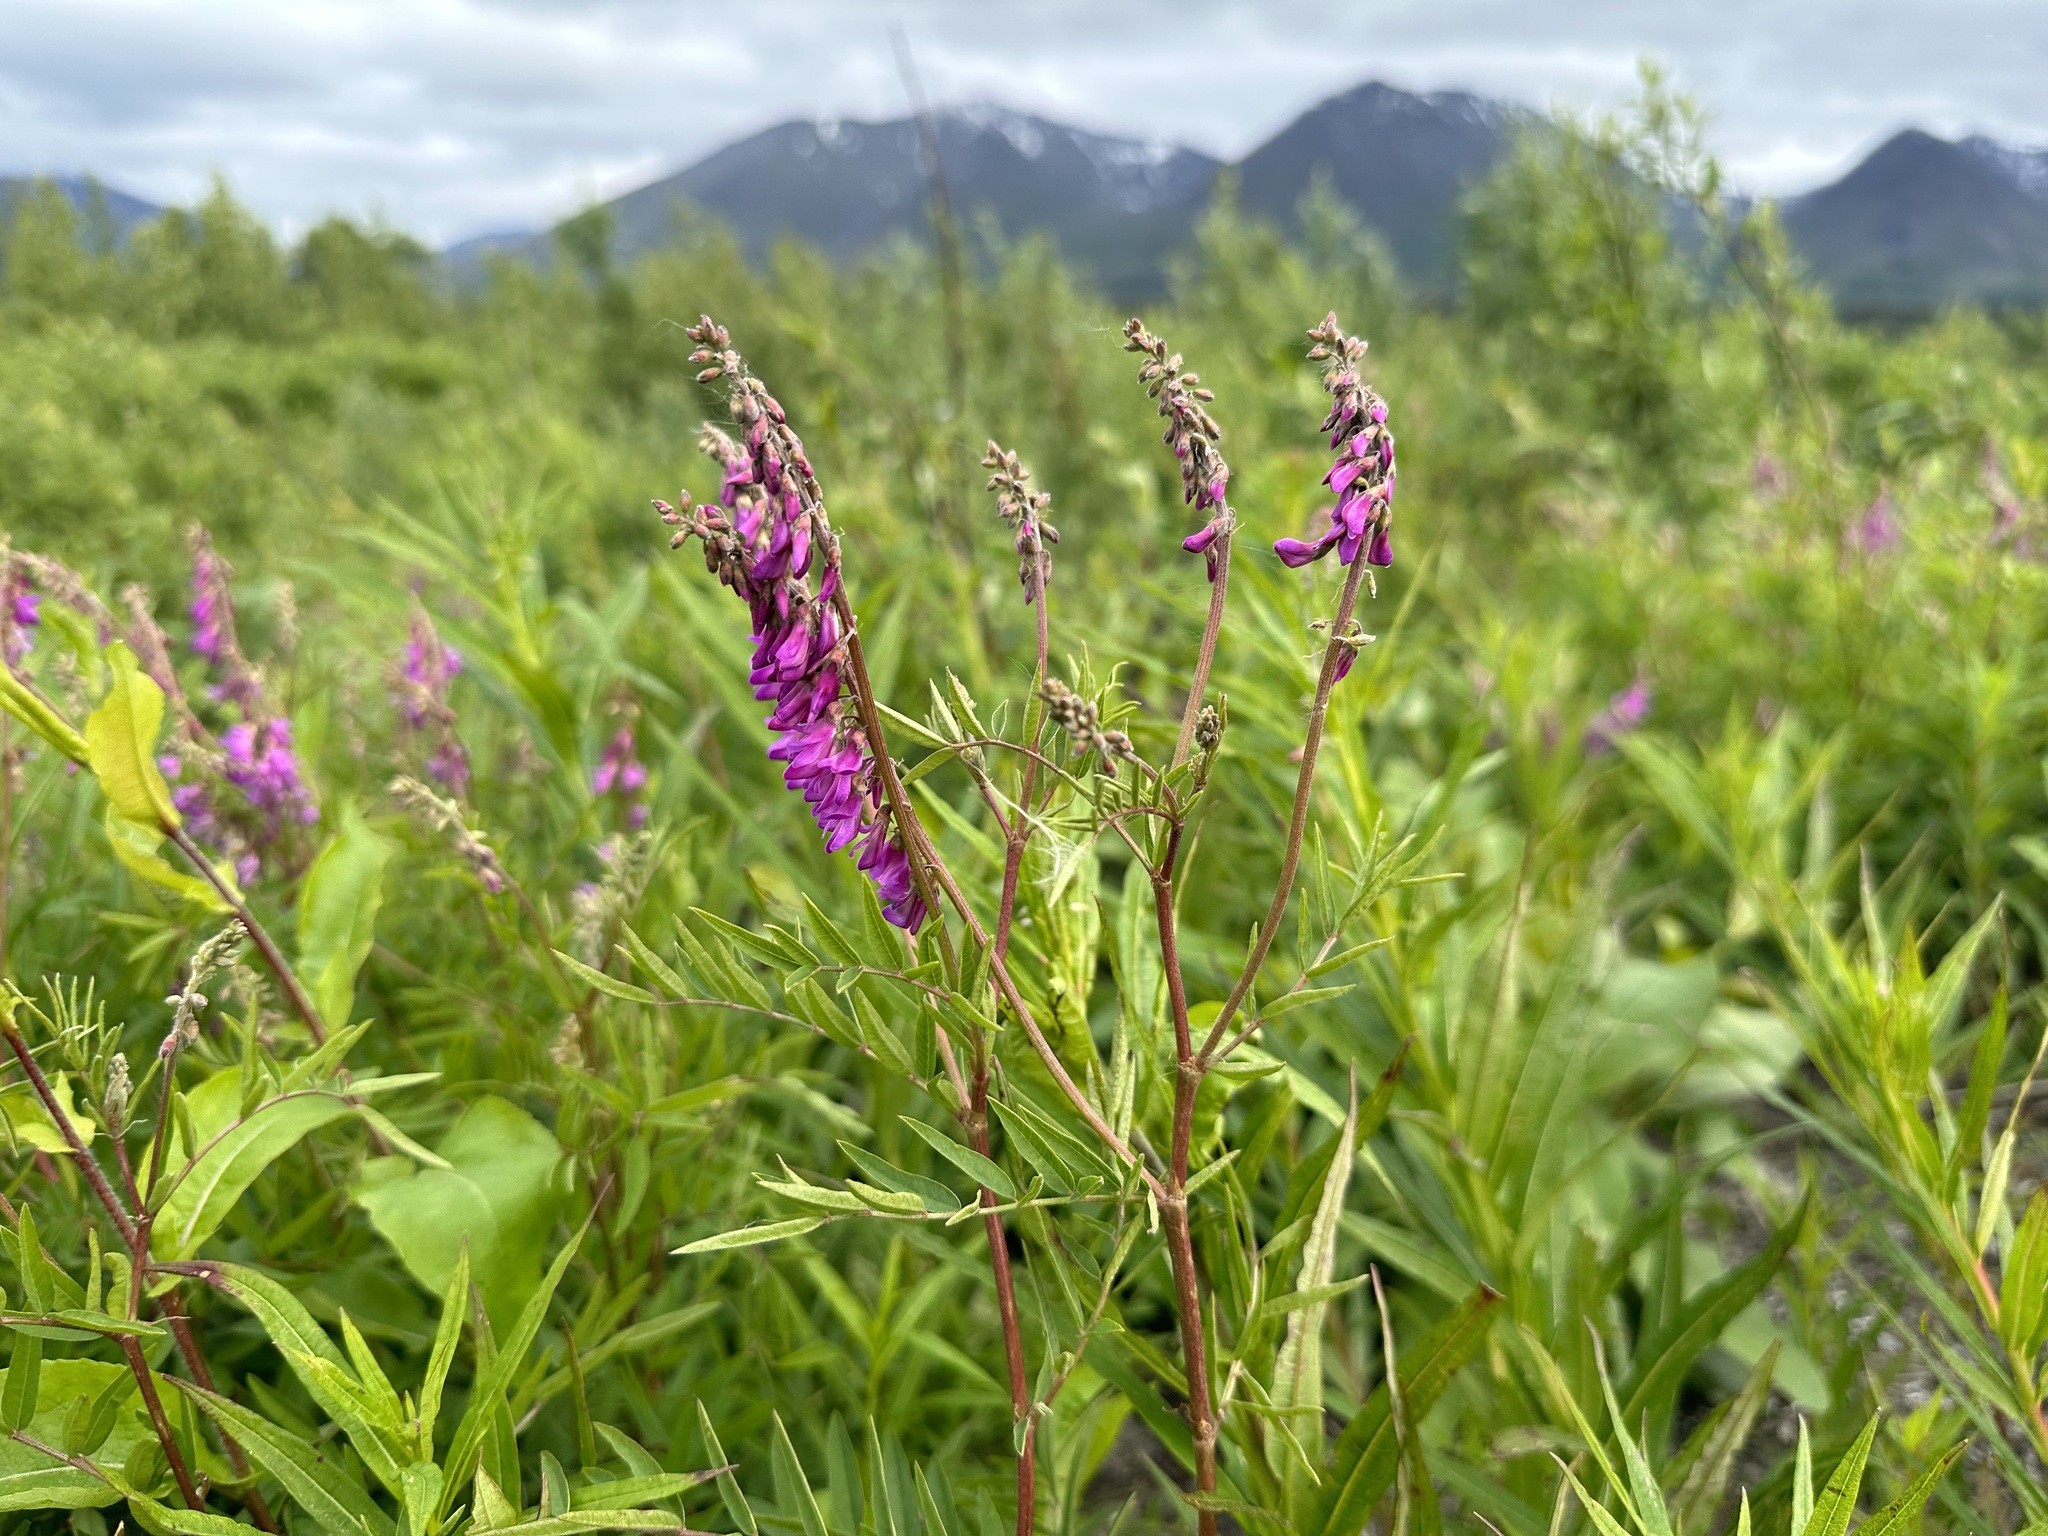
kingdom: Plantae
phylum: Tracheophyta
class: Magnoliopsida
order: Fabales
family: Fabaceae
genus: Hedysarum
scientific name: Hedysarum alpinum
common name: Alpine sweet-vetch
